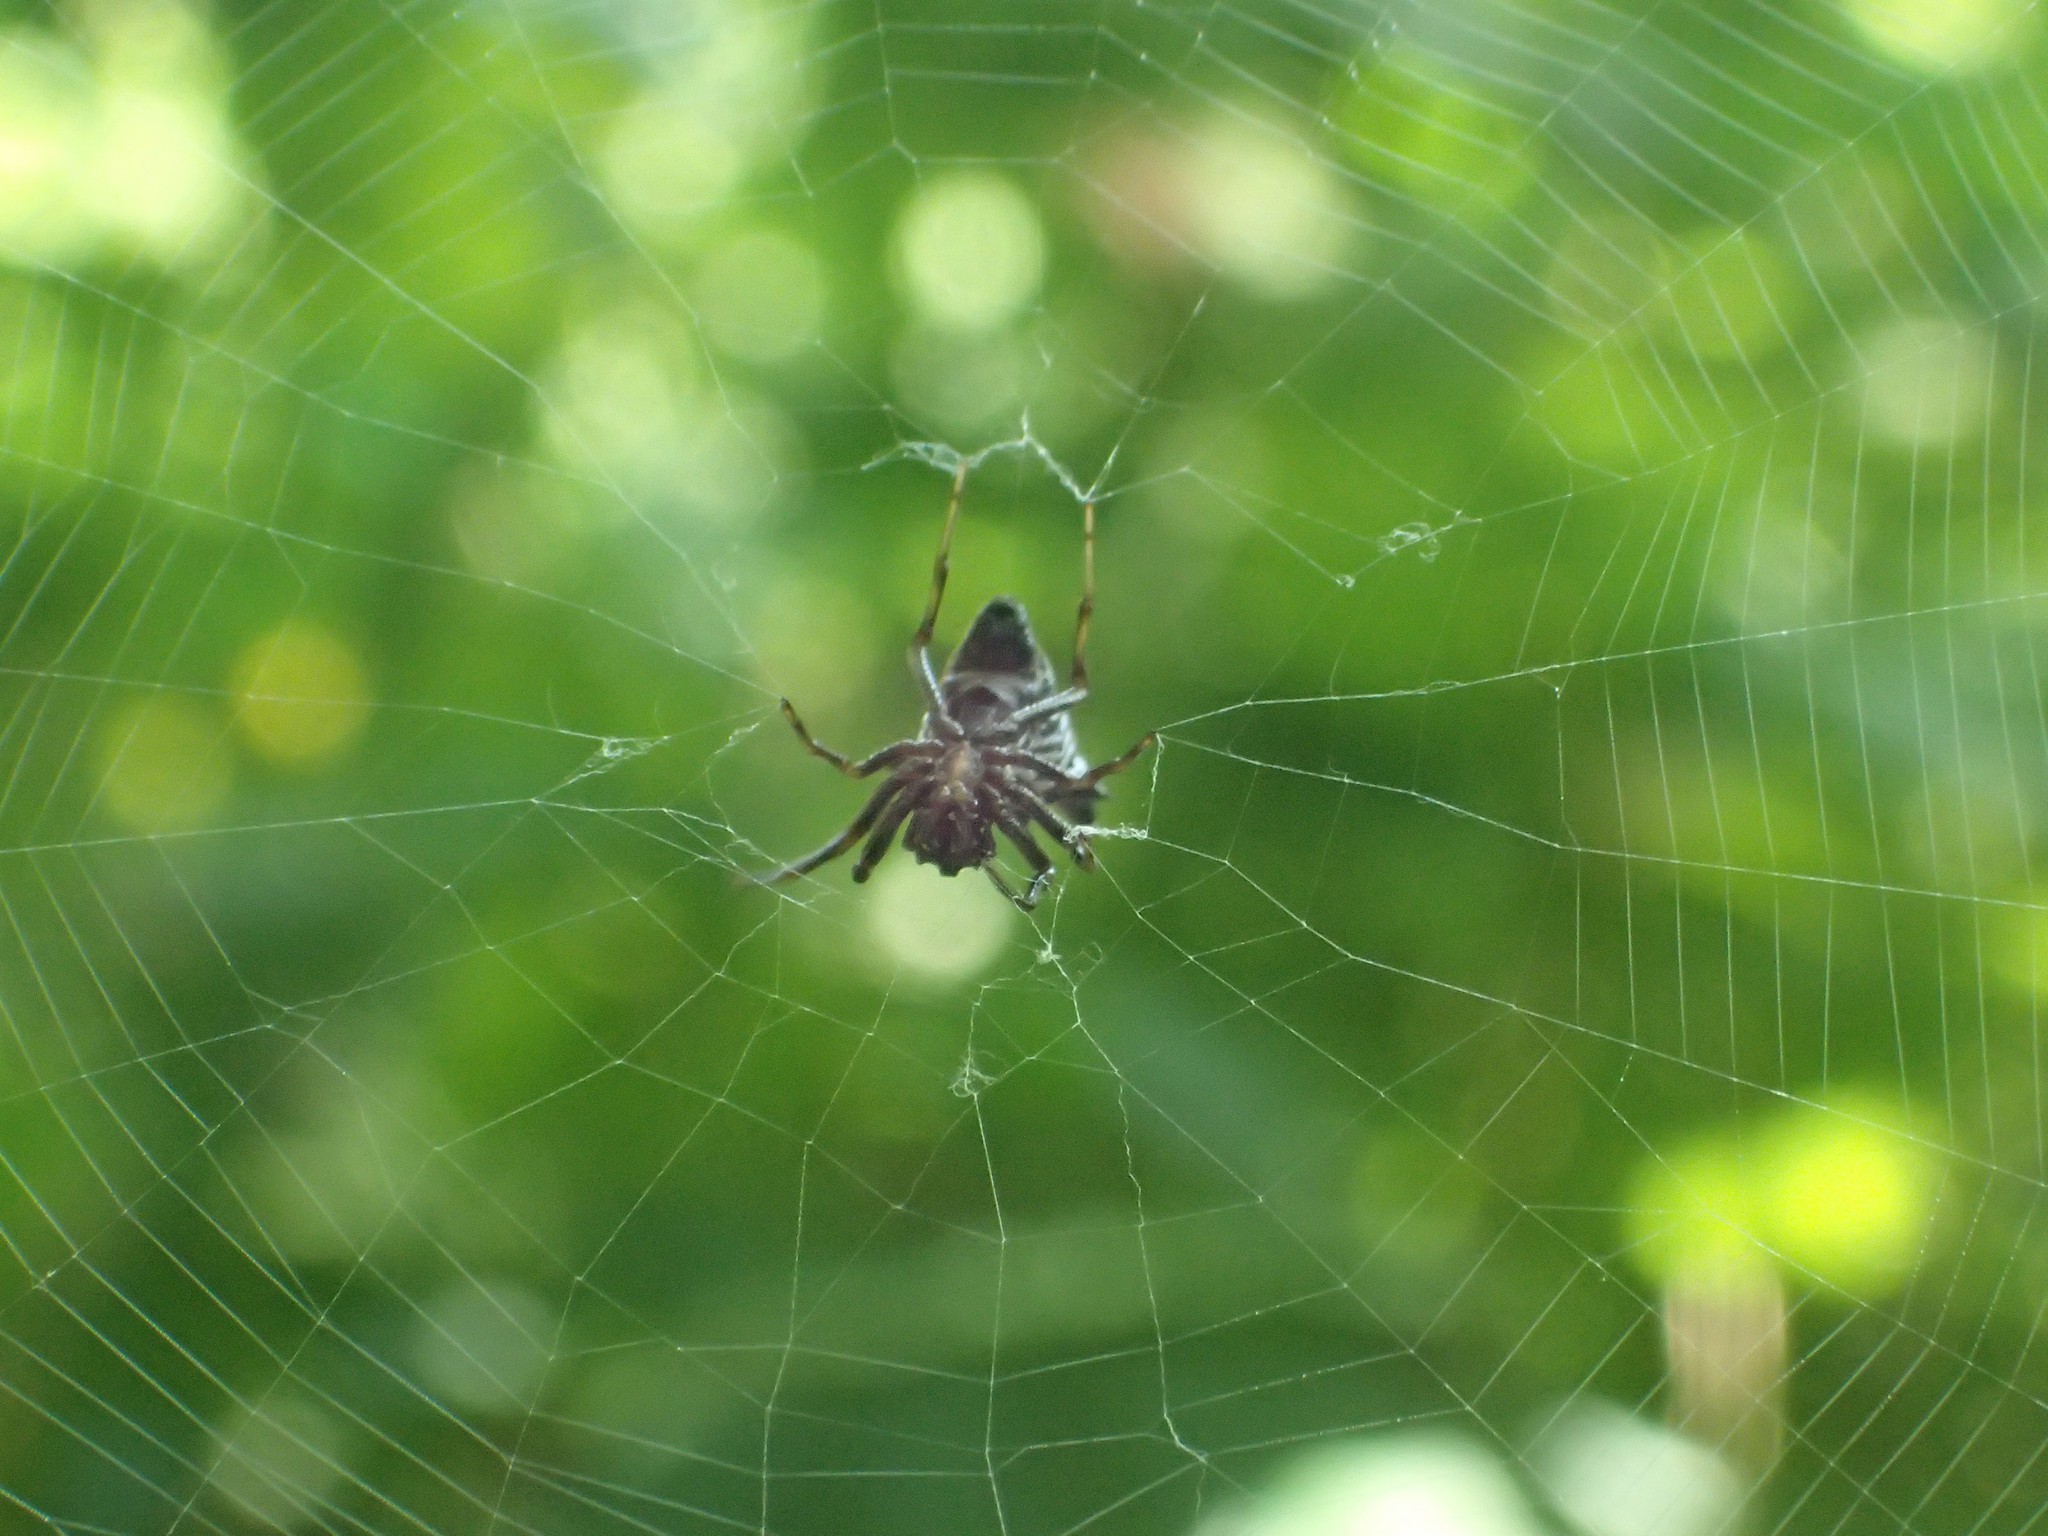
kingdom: Animalia
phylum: Arthropoda
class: Arachnida
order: Araneae
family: Araneidae
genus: Micrathena
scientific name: Micrathena gracilis
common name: Orb weavers
